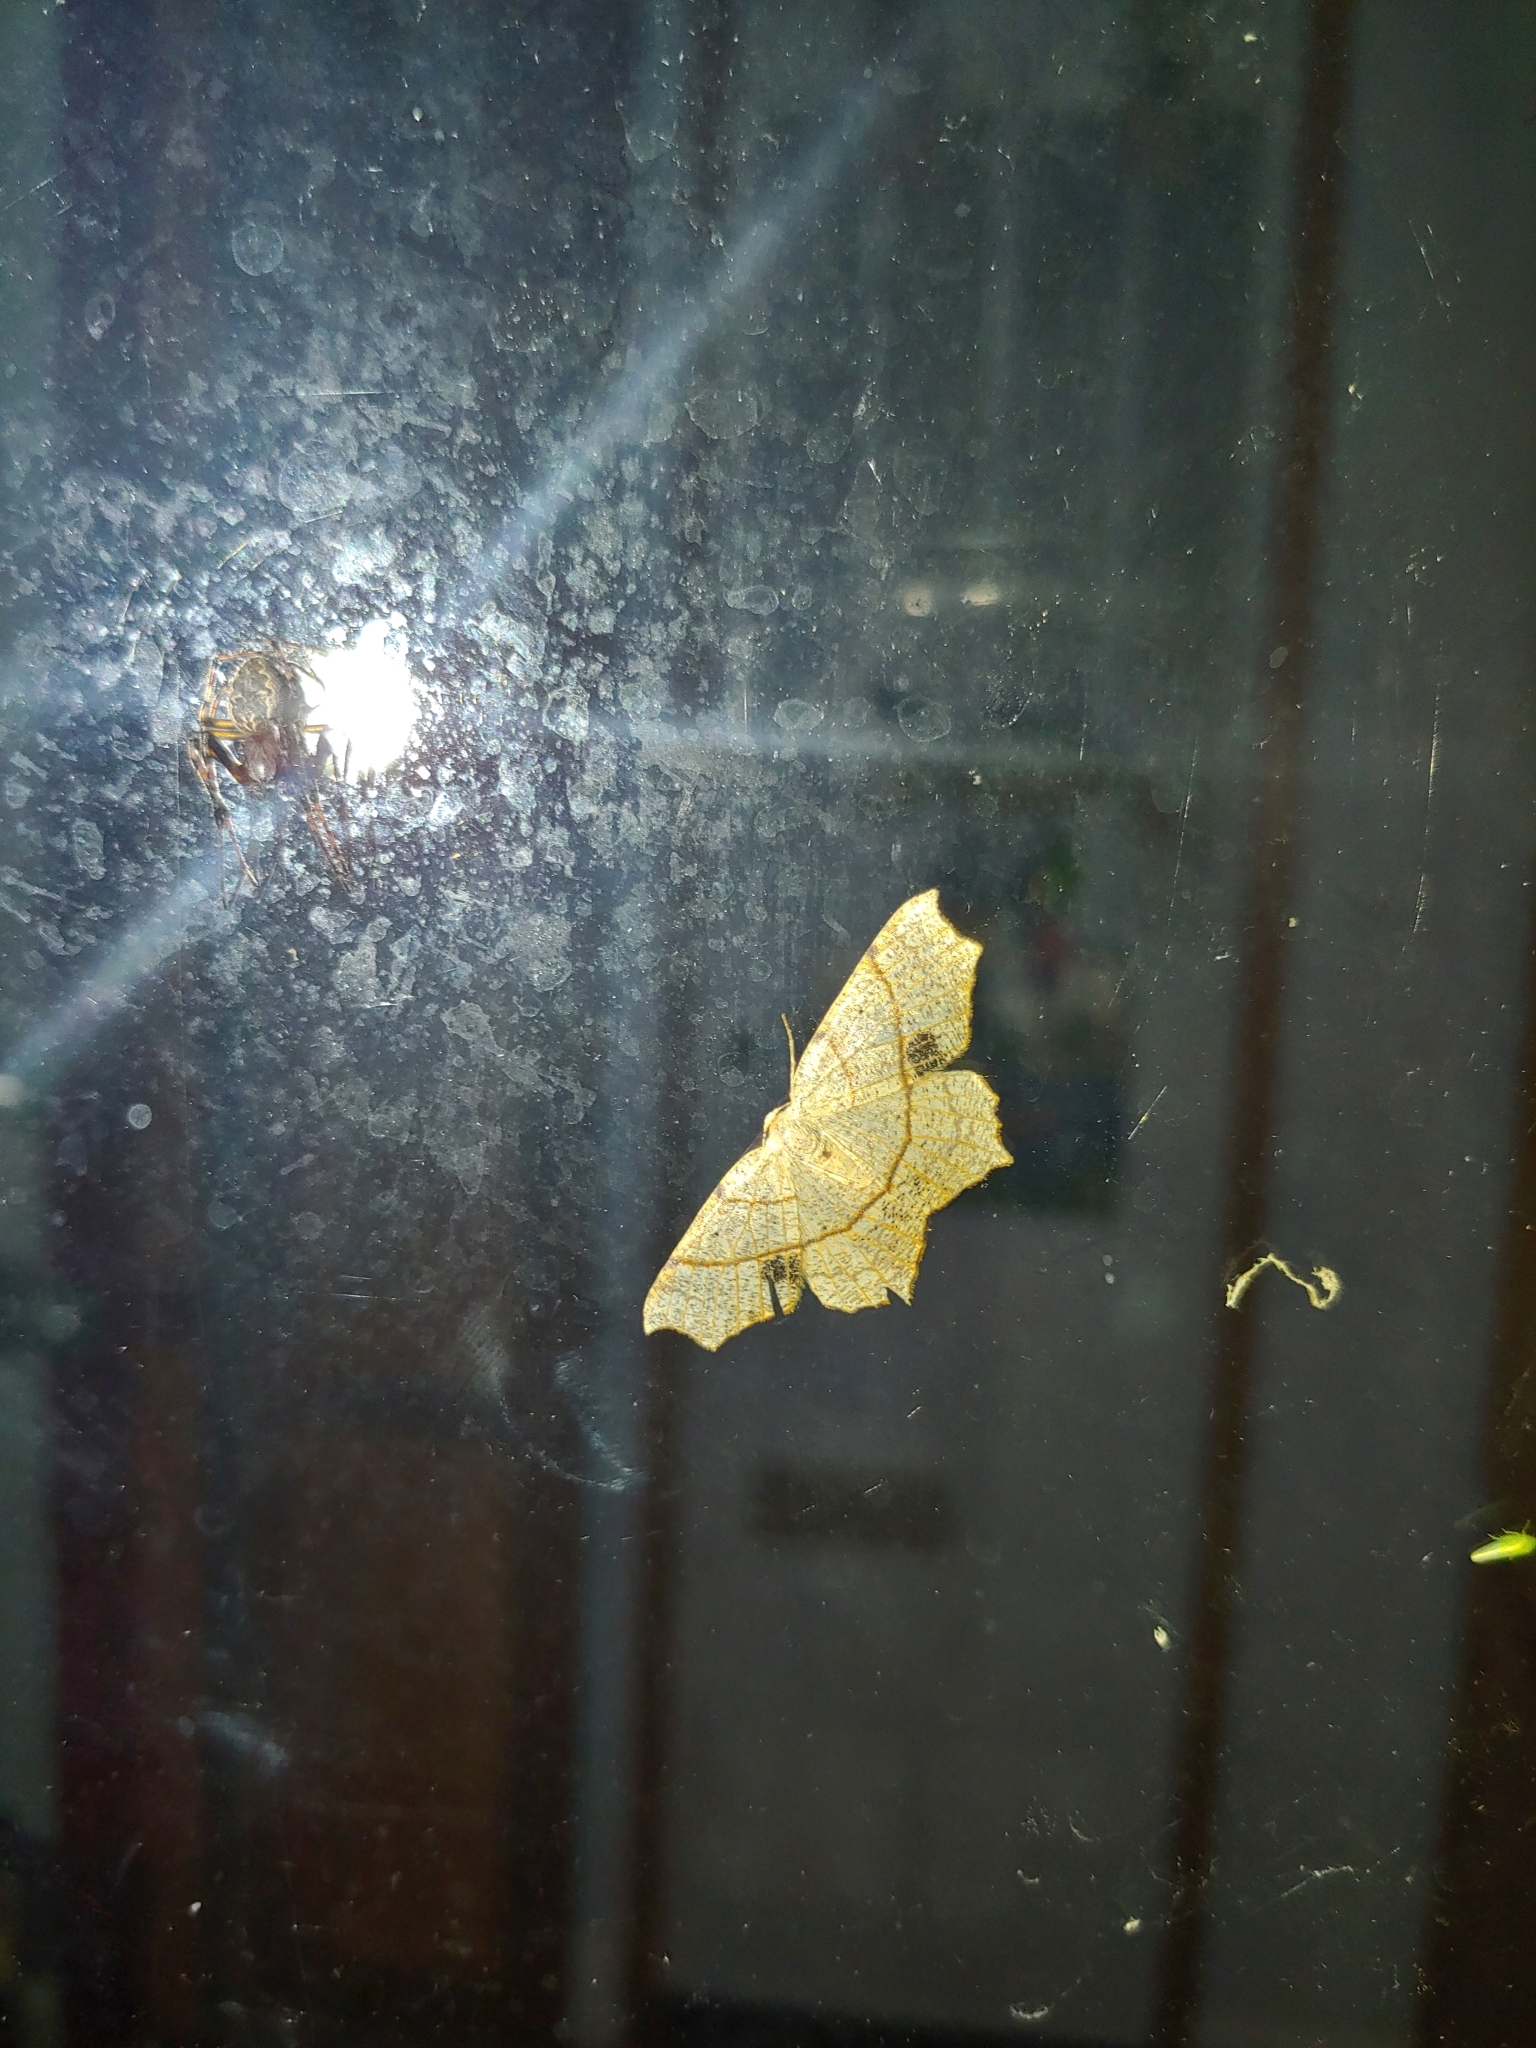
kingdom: Animalia
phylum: Arthropoda
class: Insecta
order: Lepidoptera
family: Geometridae
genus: Besma
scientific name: Besma quercivoraria
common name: Oak besma
